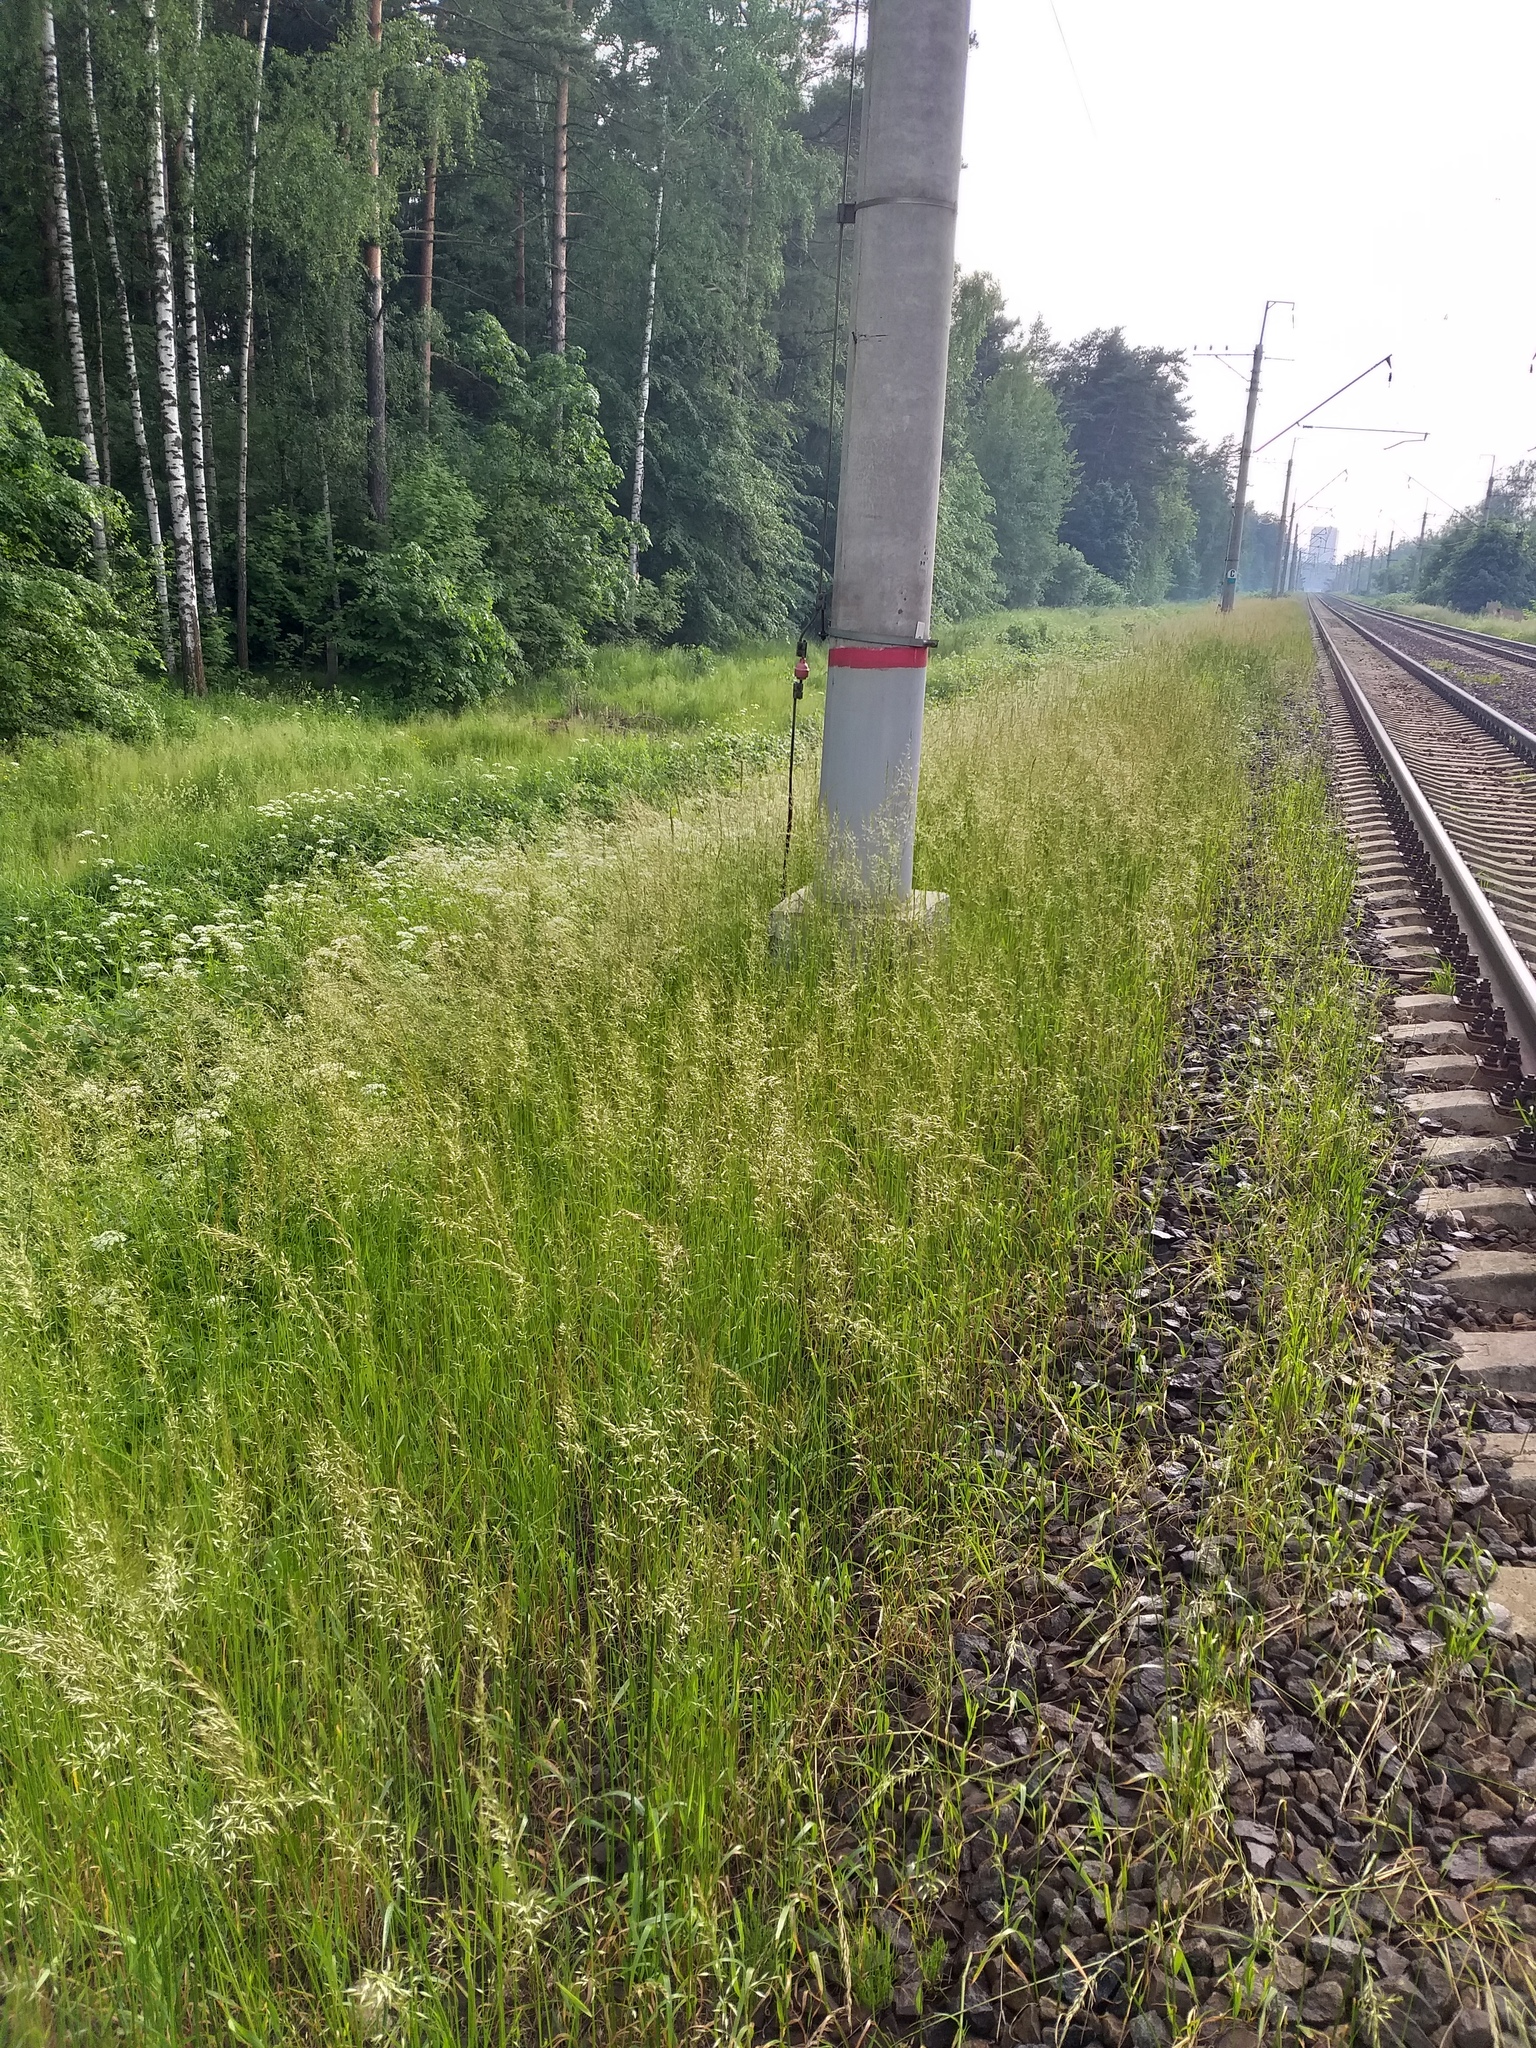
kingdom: Plantae
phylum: Tracheophyta
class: Liliopsida
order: Poales
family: Poaceae
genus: Arrhenatherum
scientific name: Arrhenatherum elatius
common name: Tall oatgrass
